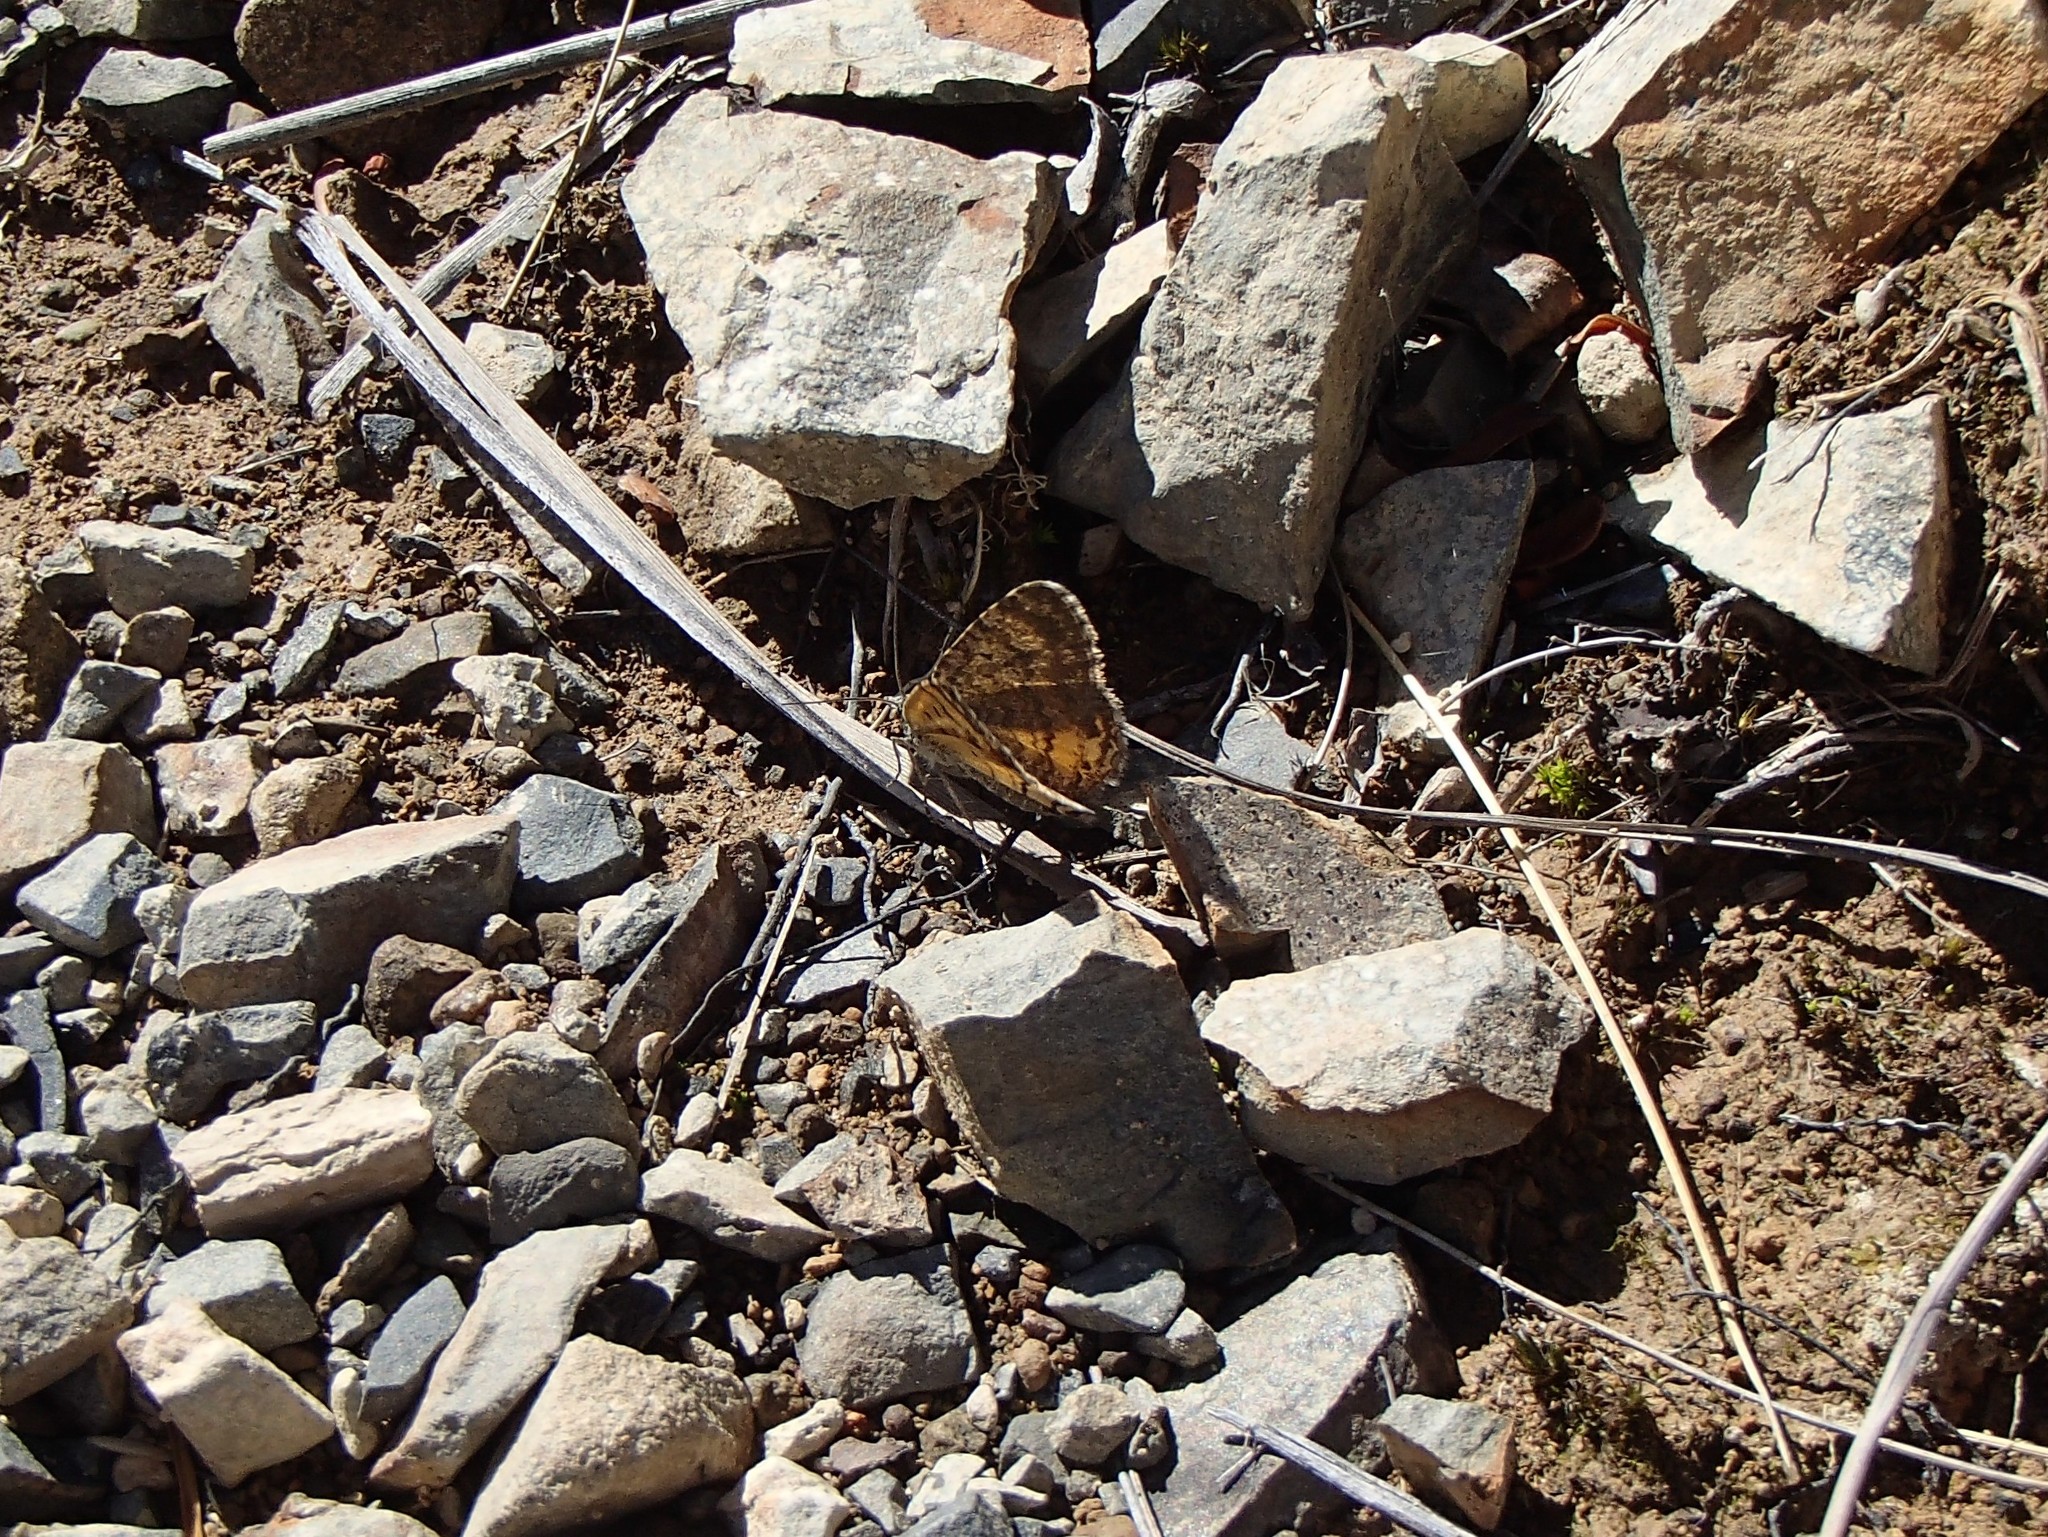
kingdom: Animalia
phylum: Arthropoda
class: Insecta
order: Lepidoptera
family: Geometridae
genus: Dasyuris
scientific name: Dasyuris anceps
